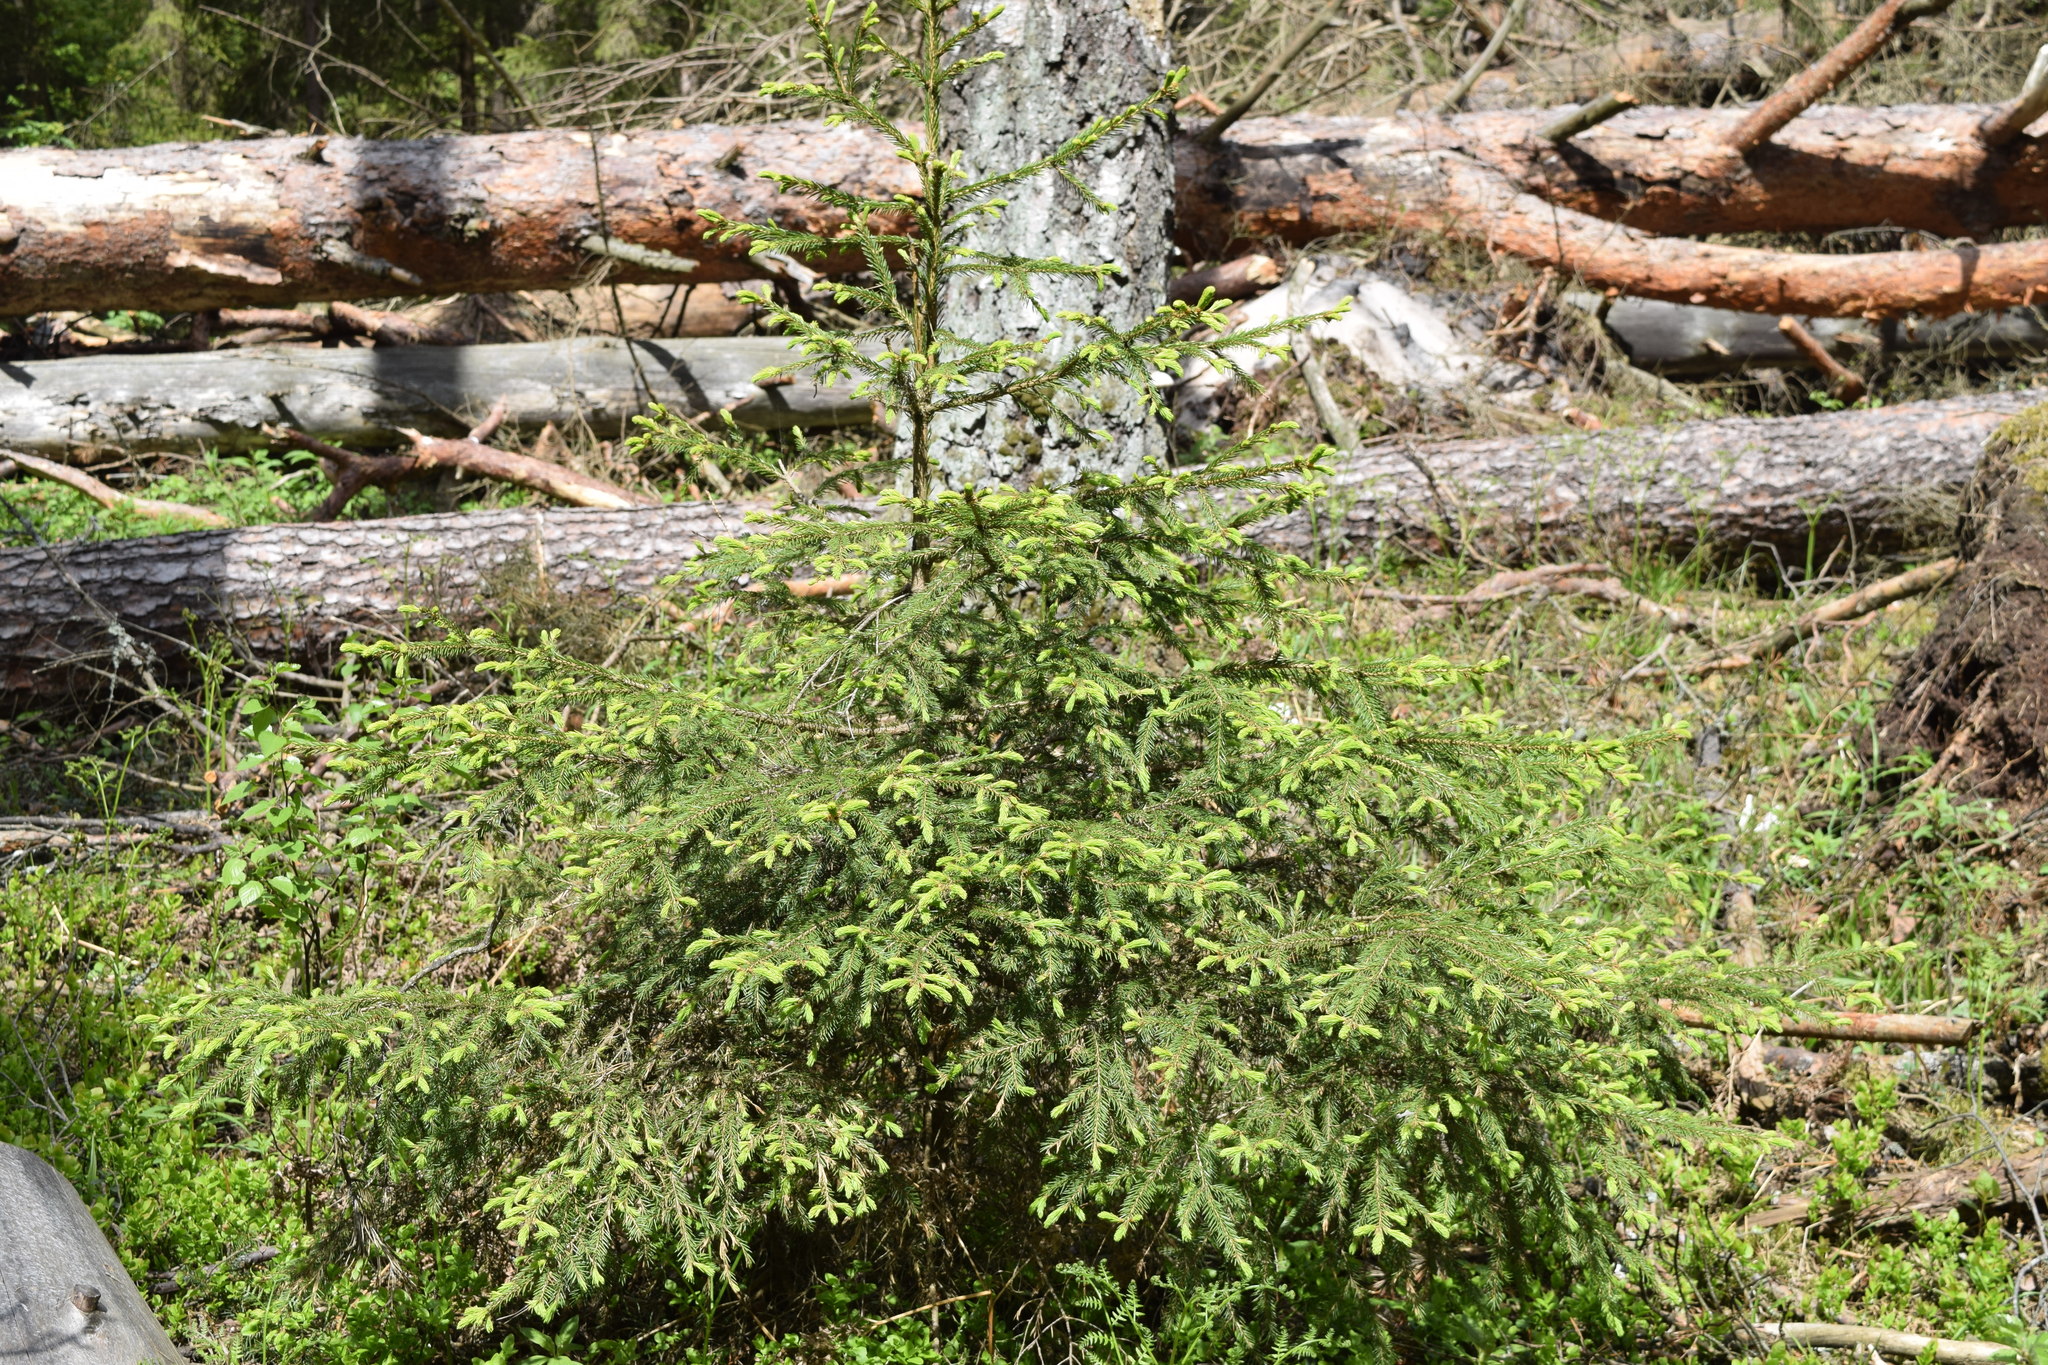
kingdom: Plantae
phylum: Tracheophyta
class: Pinopsida
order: Pinales
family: Pinaceae
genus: Picea
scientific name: Picea abies
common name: Norway spruce
